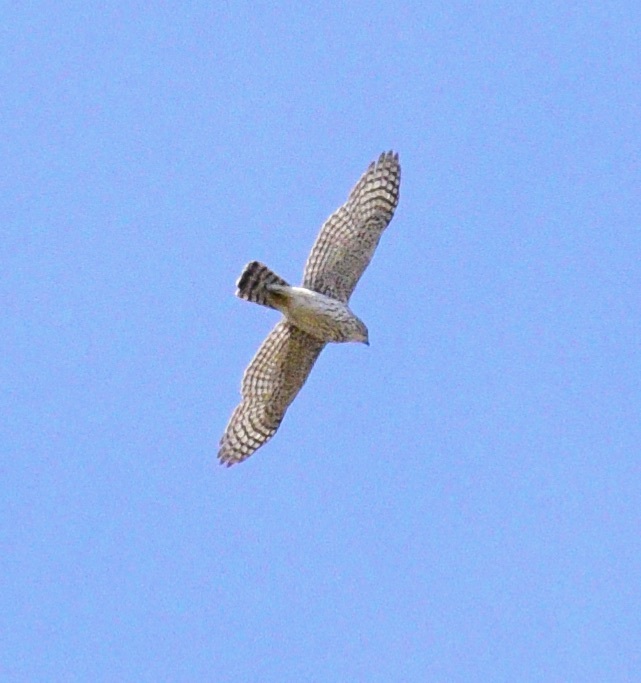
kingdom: Animalia
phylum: Chordata
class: Aves
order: Accipitriformes
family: Accipitridae
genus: Accipiter
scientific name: Accipiter cooperii
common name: Cooper's hawk
